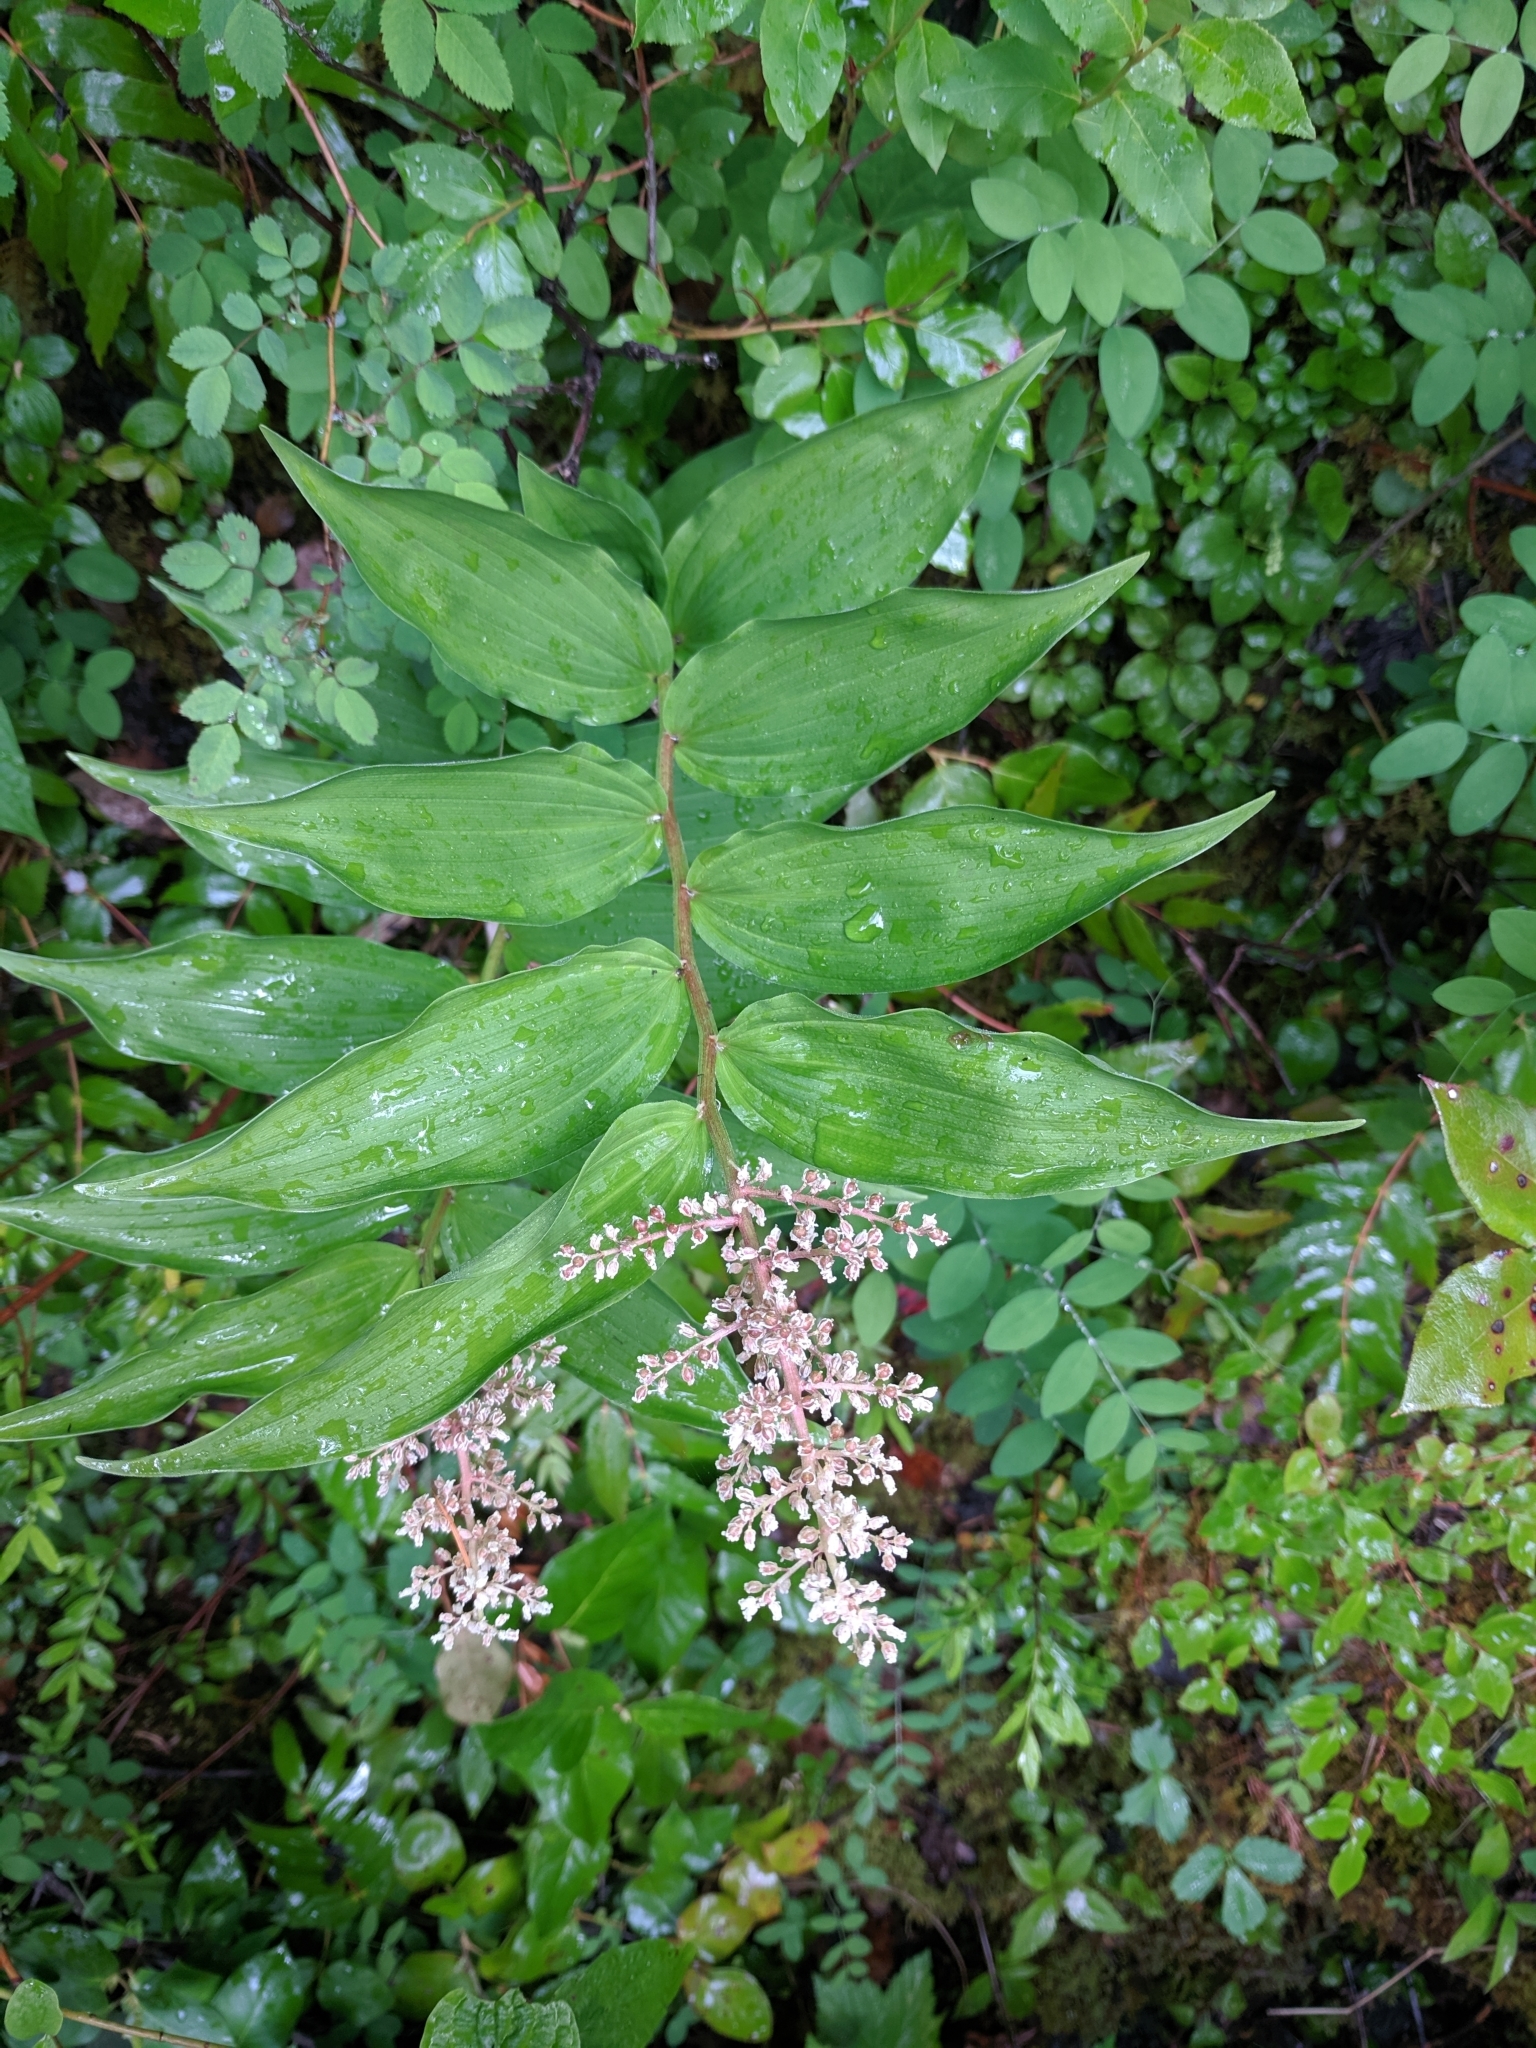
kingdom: Plantae
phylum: Tracheophyta
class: Liliopsida
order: Asparagales
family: Asparagaceae
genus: Maianthemum
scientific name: Maianthemum racemosum
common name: False spikenard
